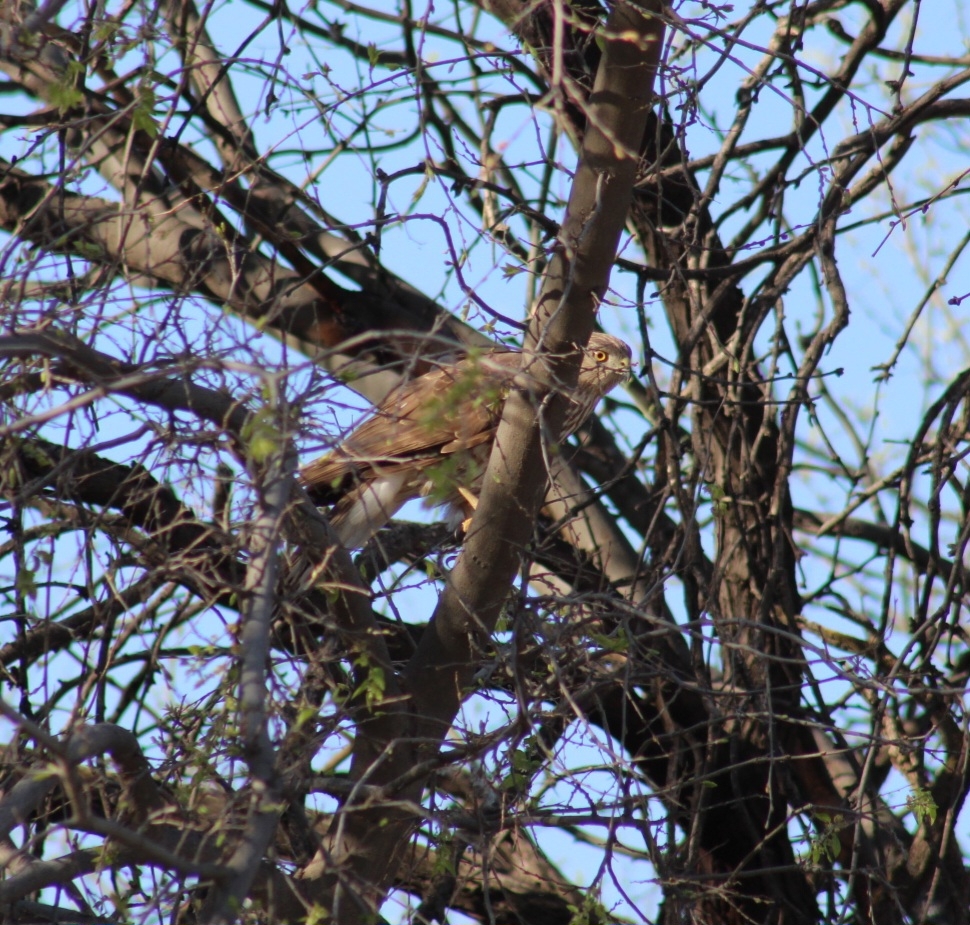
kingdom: Animalia
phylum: Chordata
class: Aves
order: Accipitriformes
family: Accipitridae
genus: Accipiter
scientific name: Accipiter cooperii
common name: Cooper's hawk
